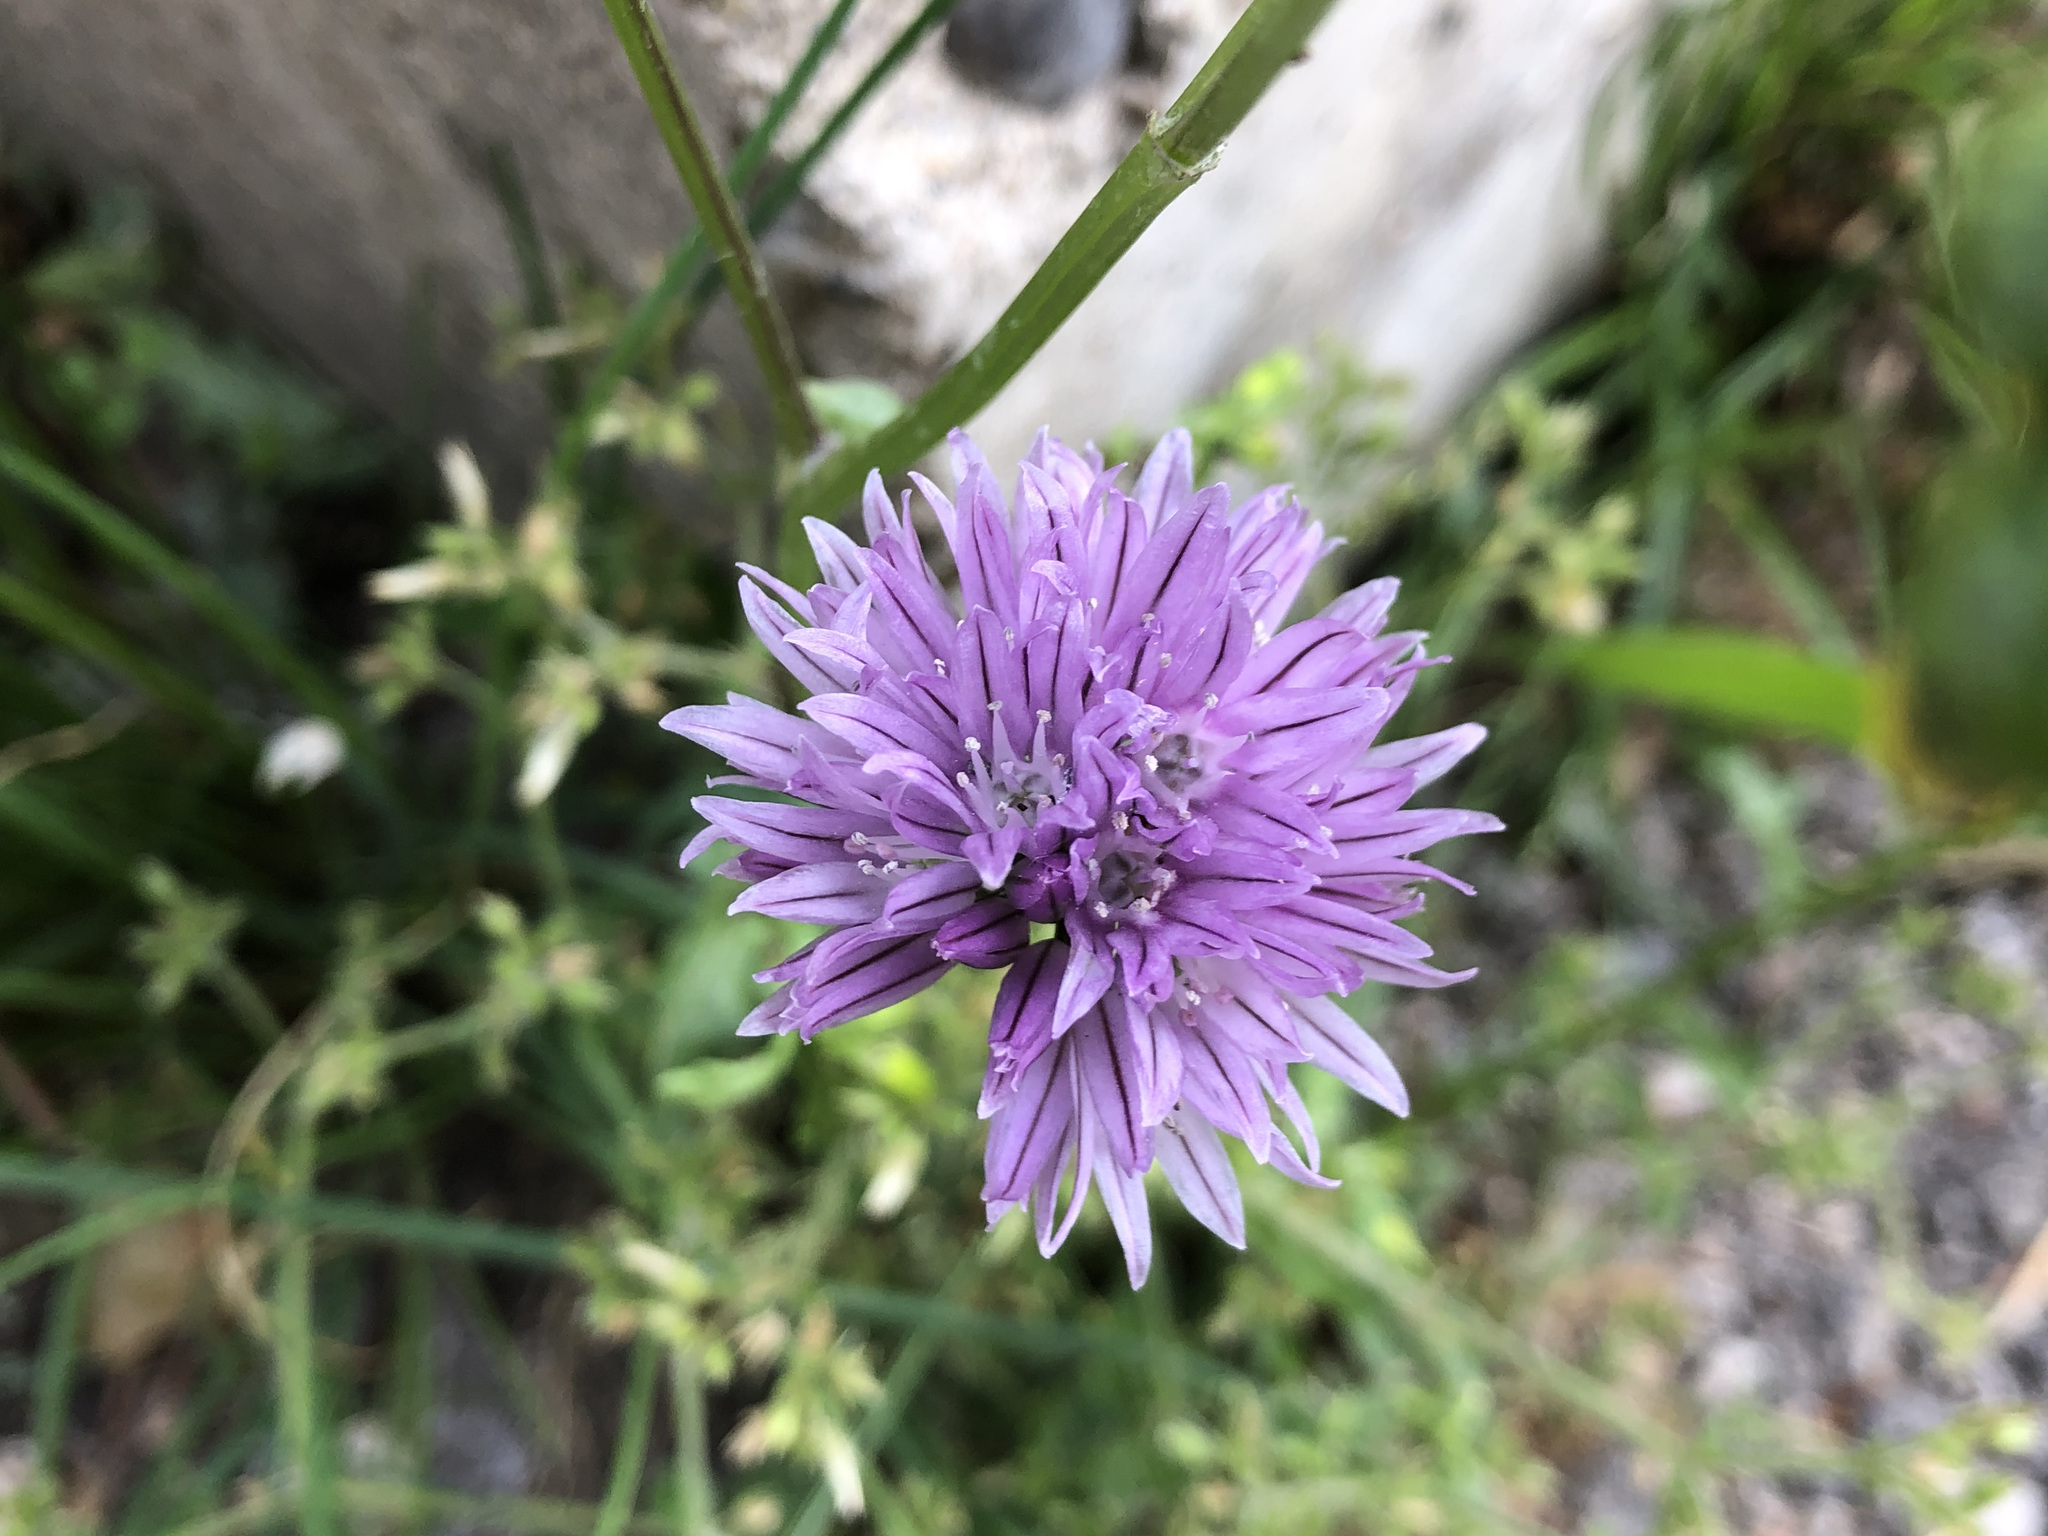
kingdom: Plantae
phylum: Tracheophyta
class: Liliopsida
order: Asparagales
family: Amaryllidaceae
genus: Allium
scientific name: Allium schoenoprasum
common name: Chives
